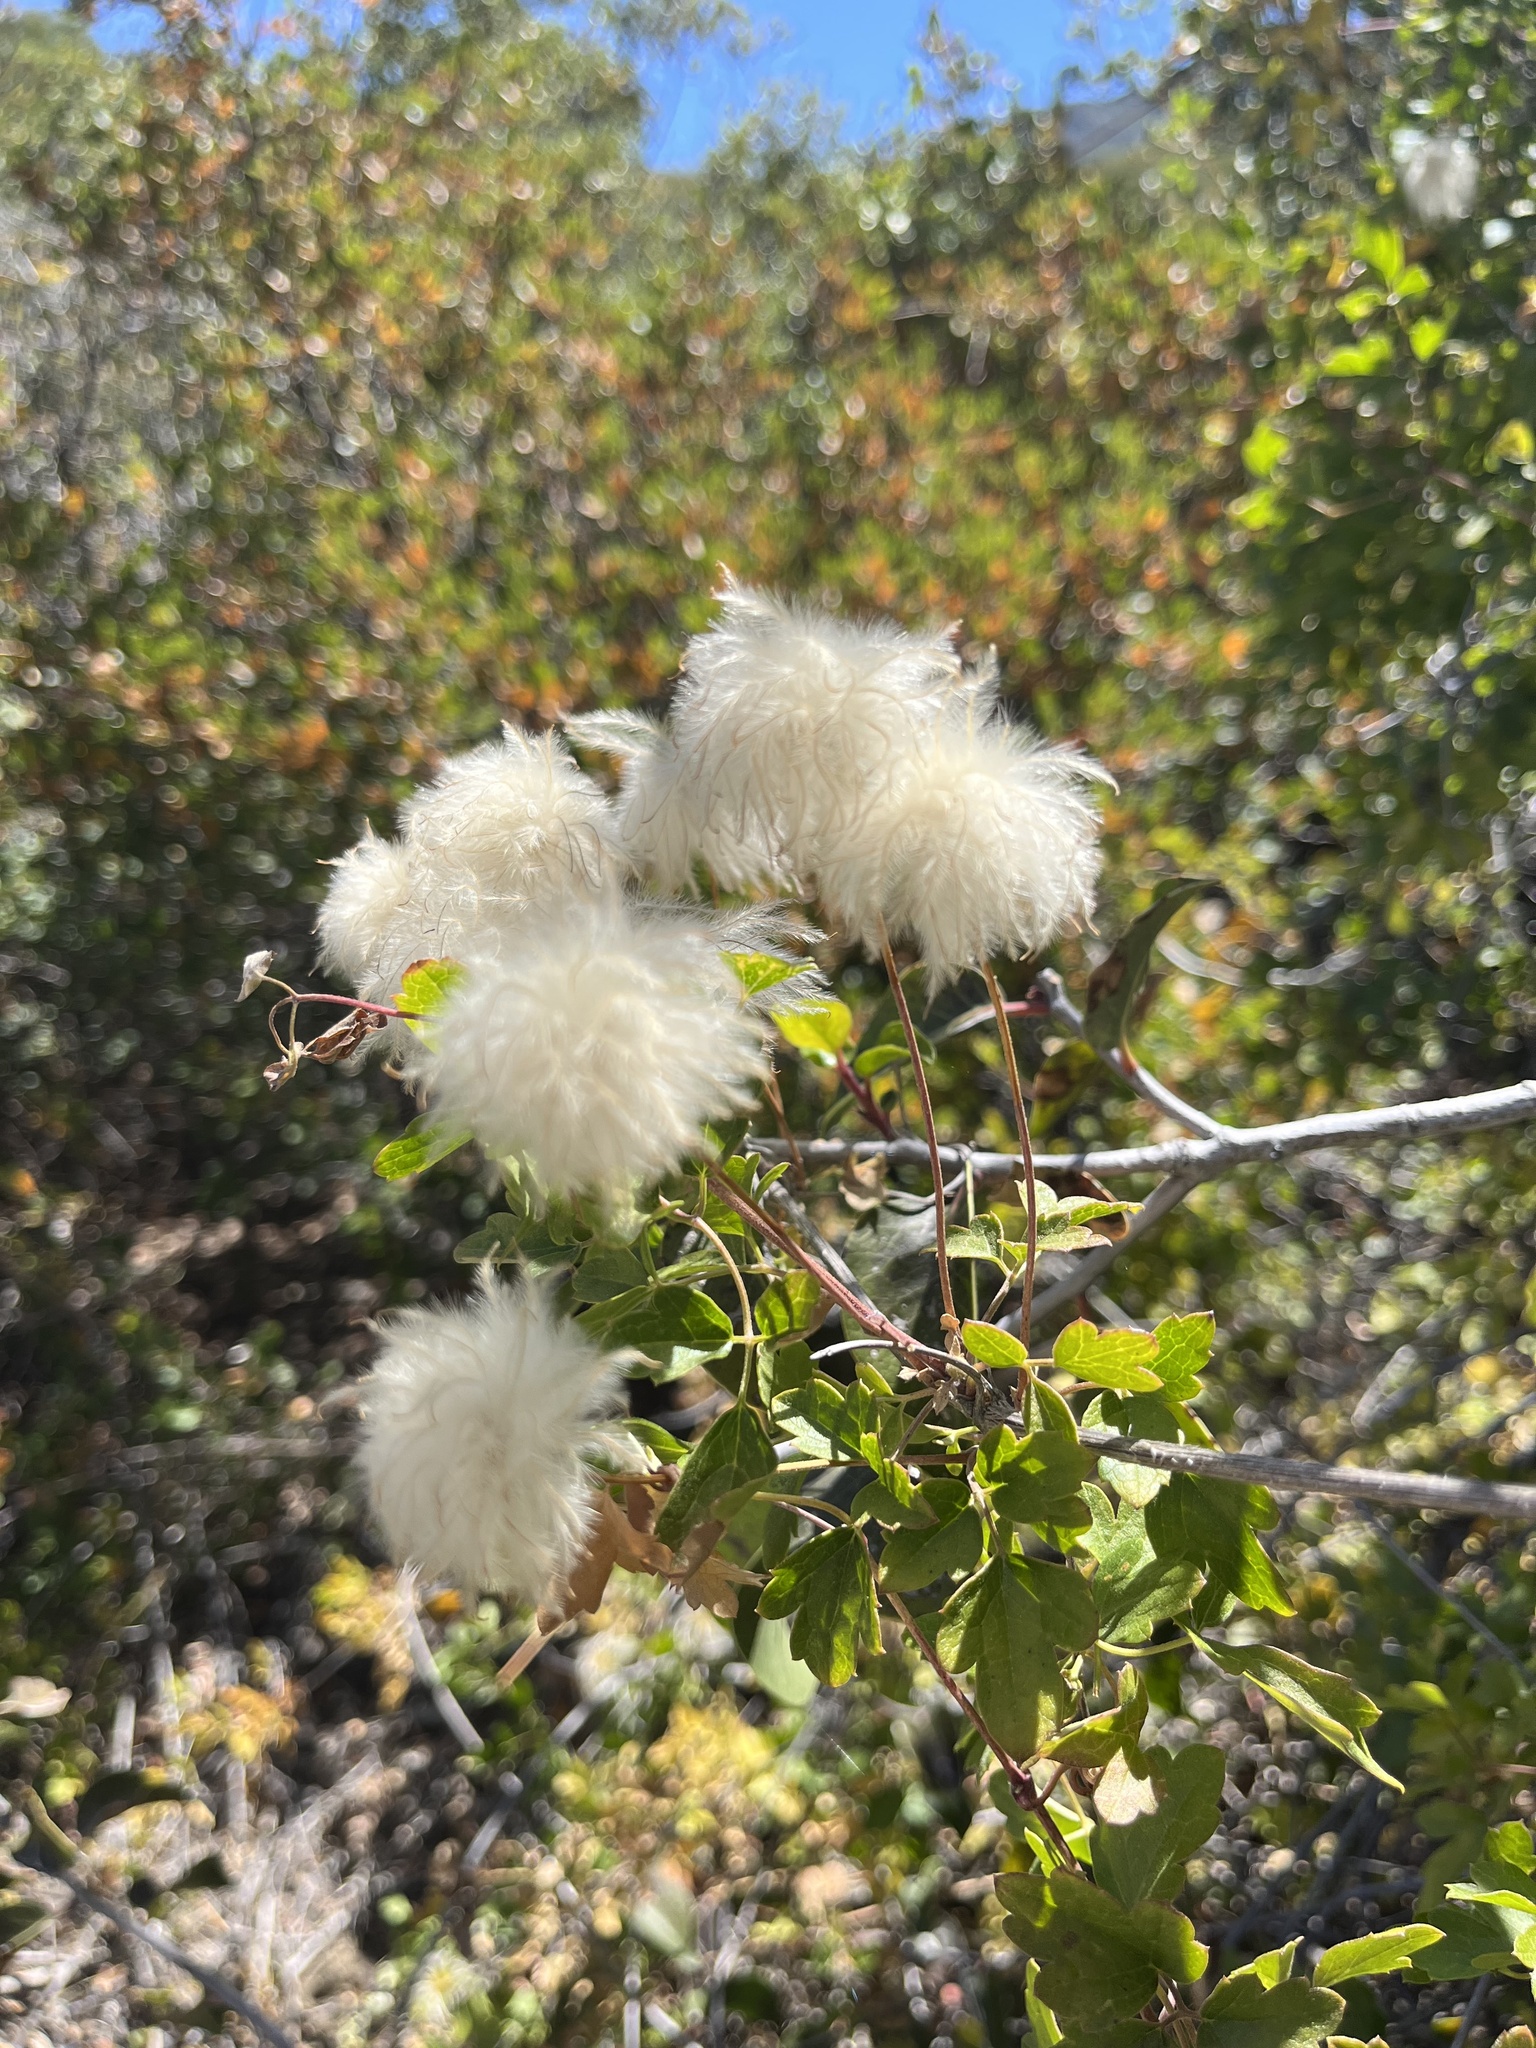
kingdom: Plantae
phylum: Tracheophyta
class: Magnoliopsida
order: Ranunculales
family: Ranunculaceae
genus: Clematis
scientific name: Clematis lasiantha
